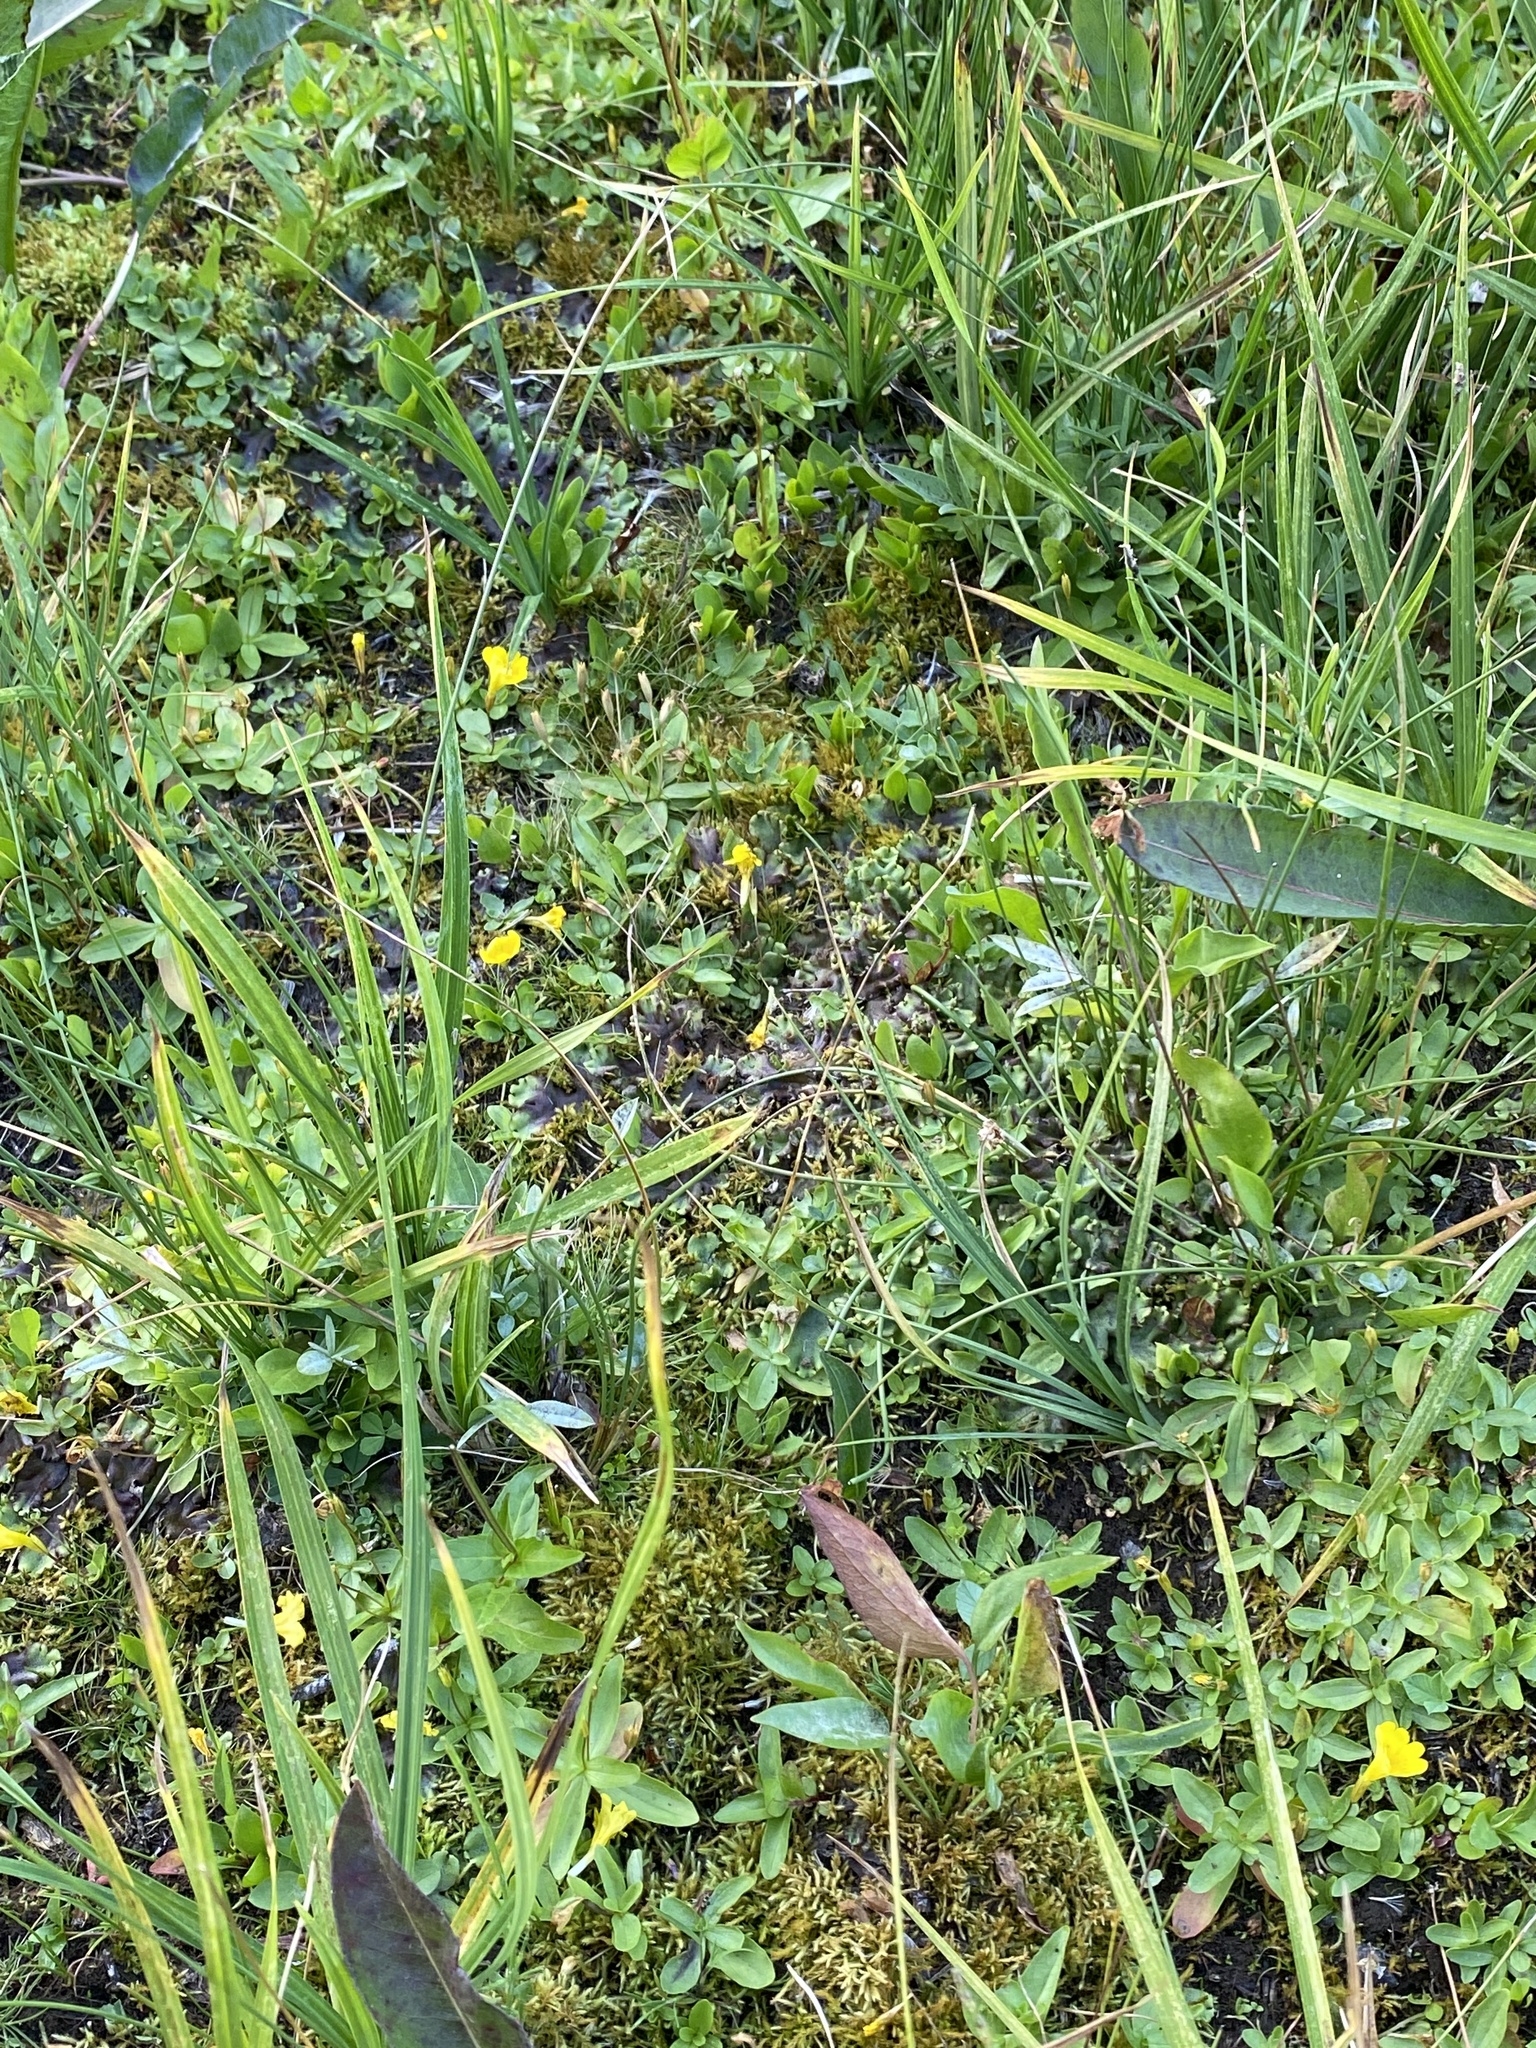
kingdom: Plantae
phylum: Tracheophyta
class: Magnoliopsida
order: Lamiales
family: Phrymaceae
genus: Erythranthe
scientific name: Erythranthe primuloides
